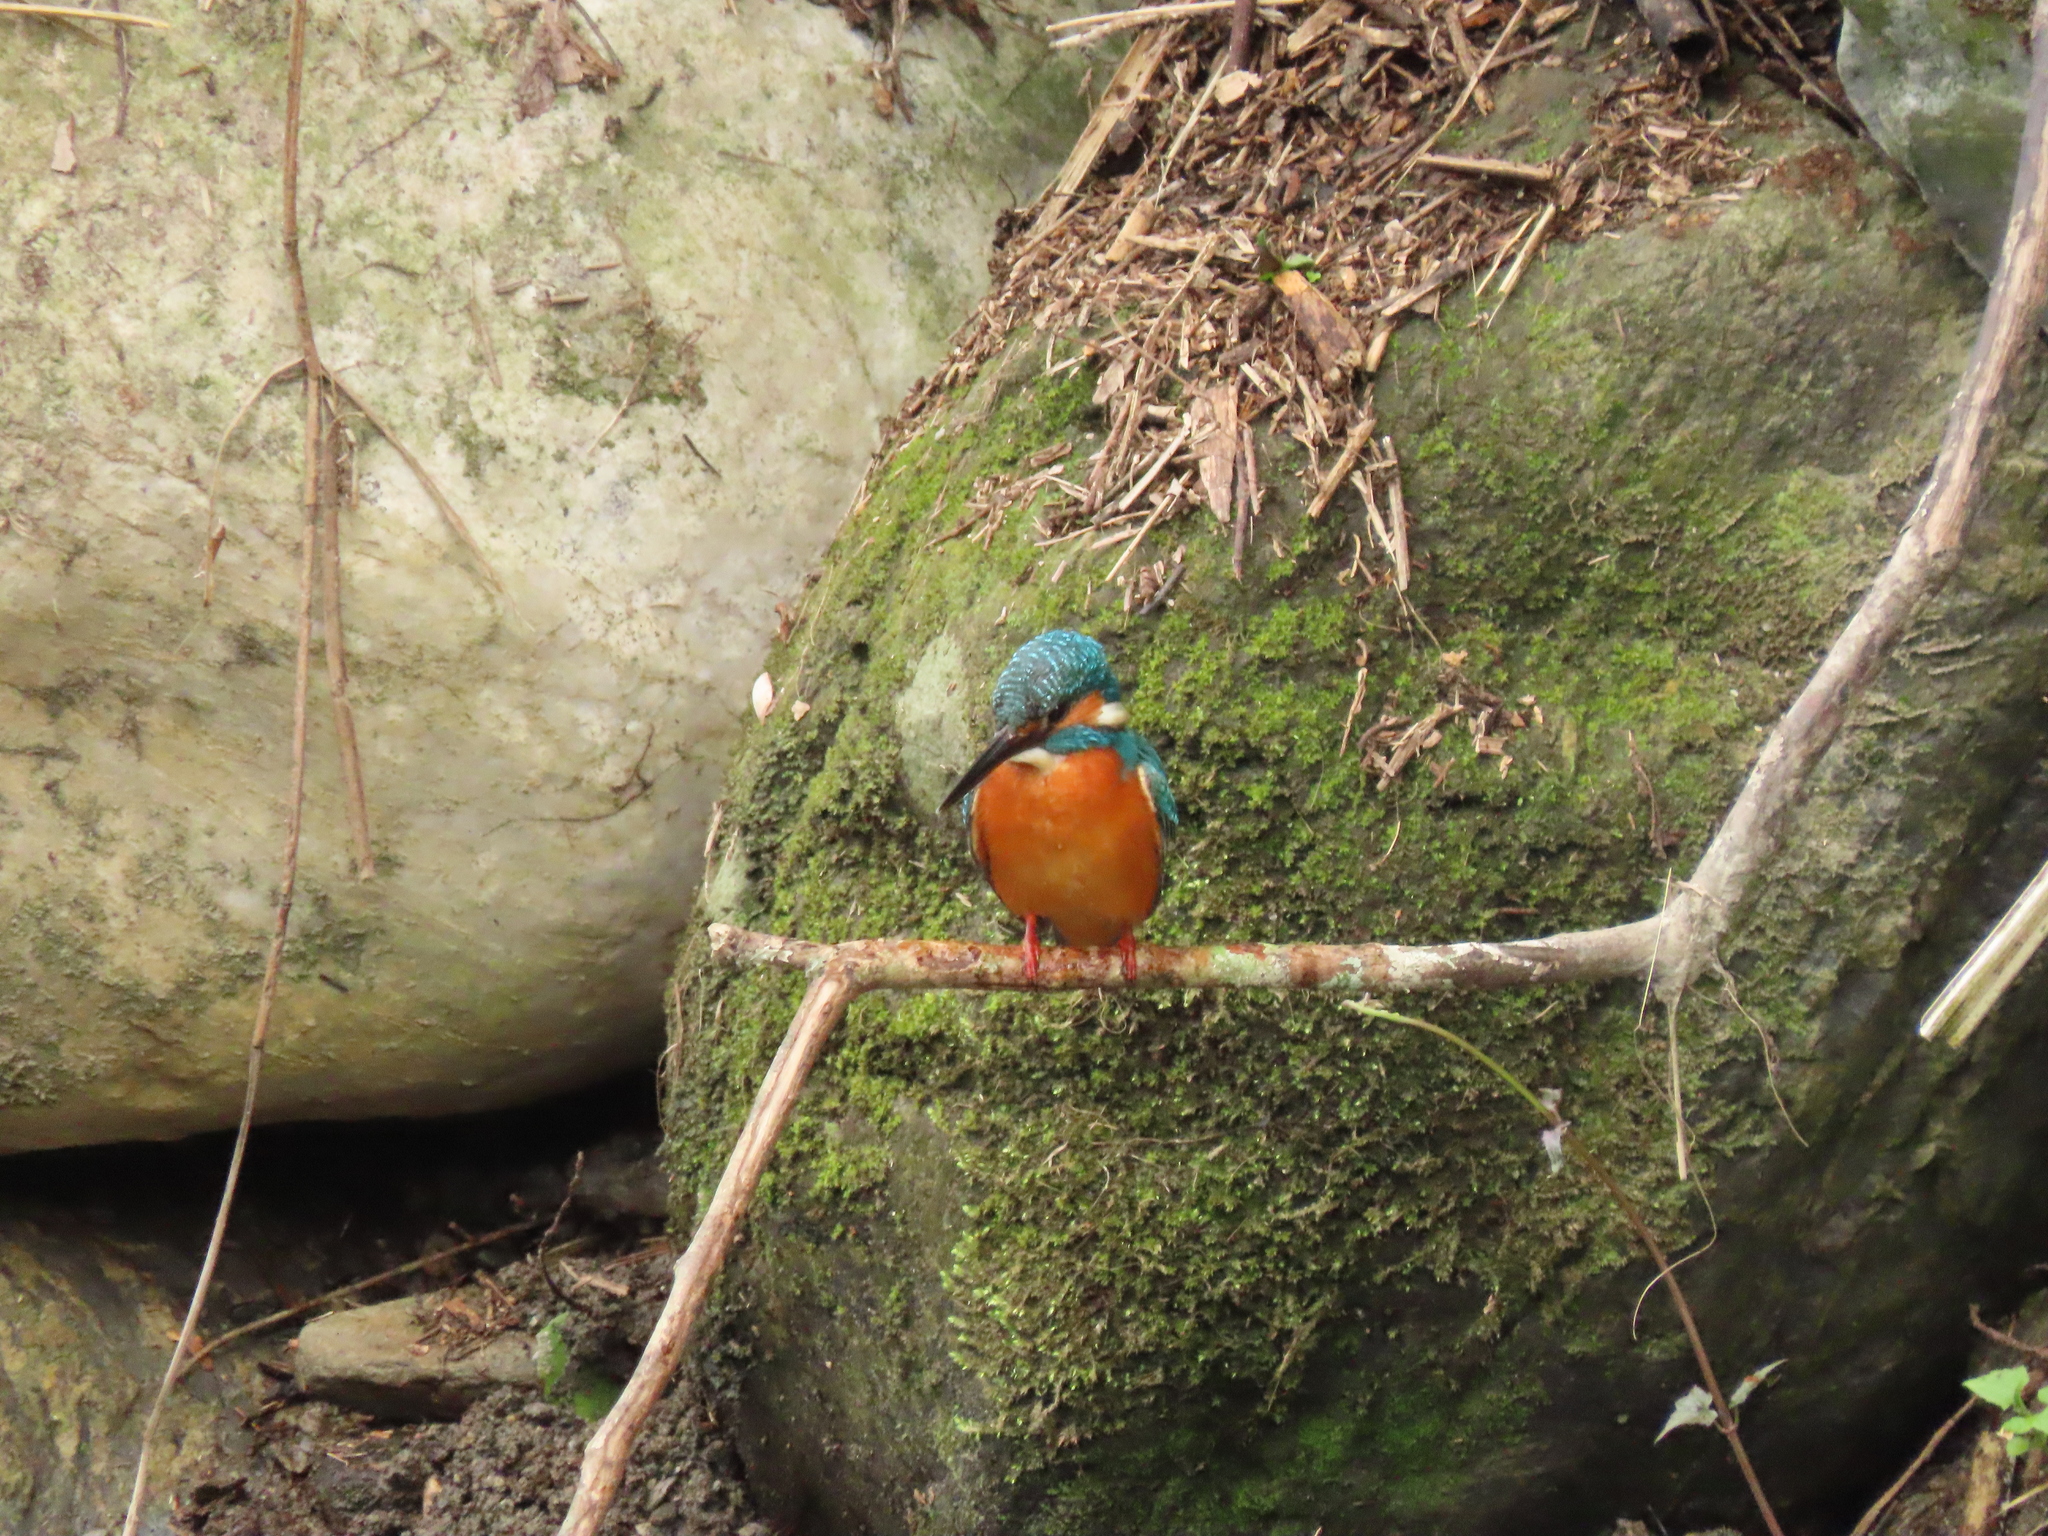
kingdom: Animalia
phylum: Chordata
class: Aves
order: Coraciiformes
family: Alcedinidae
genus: Alcedo
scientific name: Alcedo atthis
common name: Common kingfisher
